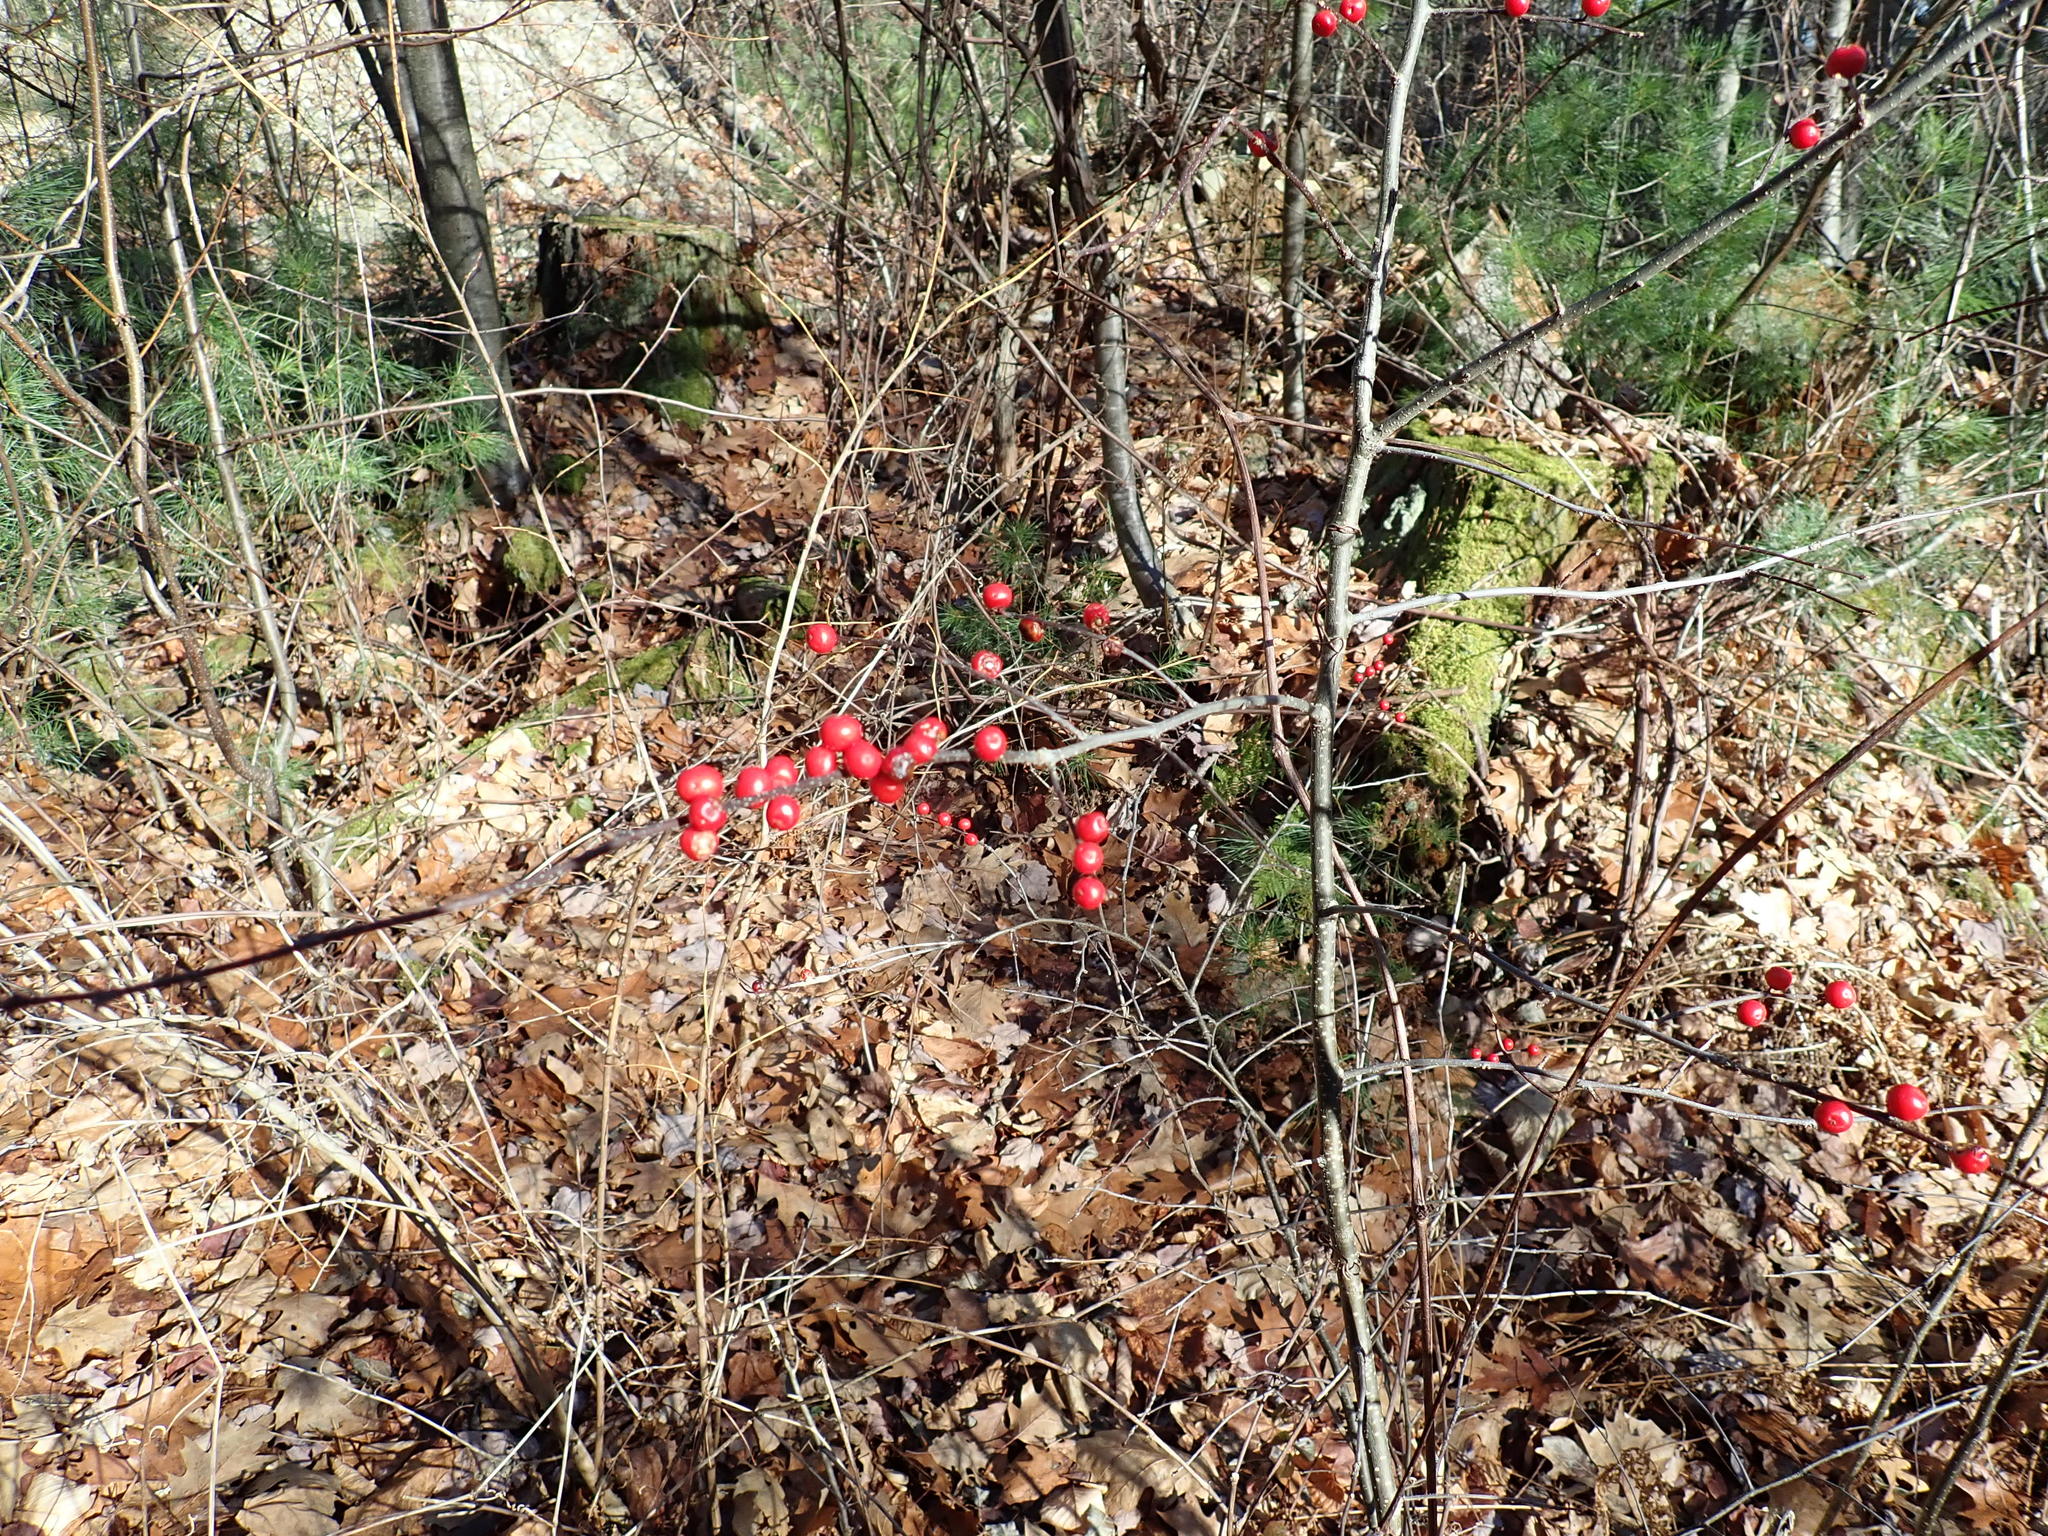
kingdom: Plantae
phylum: Tracheophyta
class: Magnoliopsida
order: Aquifoliales
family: Aquifoliaceae
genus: Ilex
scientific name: Ilex verticillata
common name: Virginia winterberry
